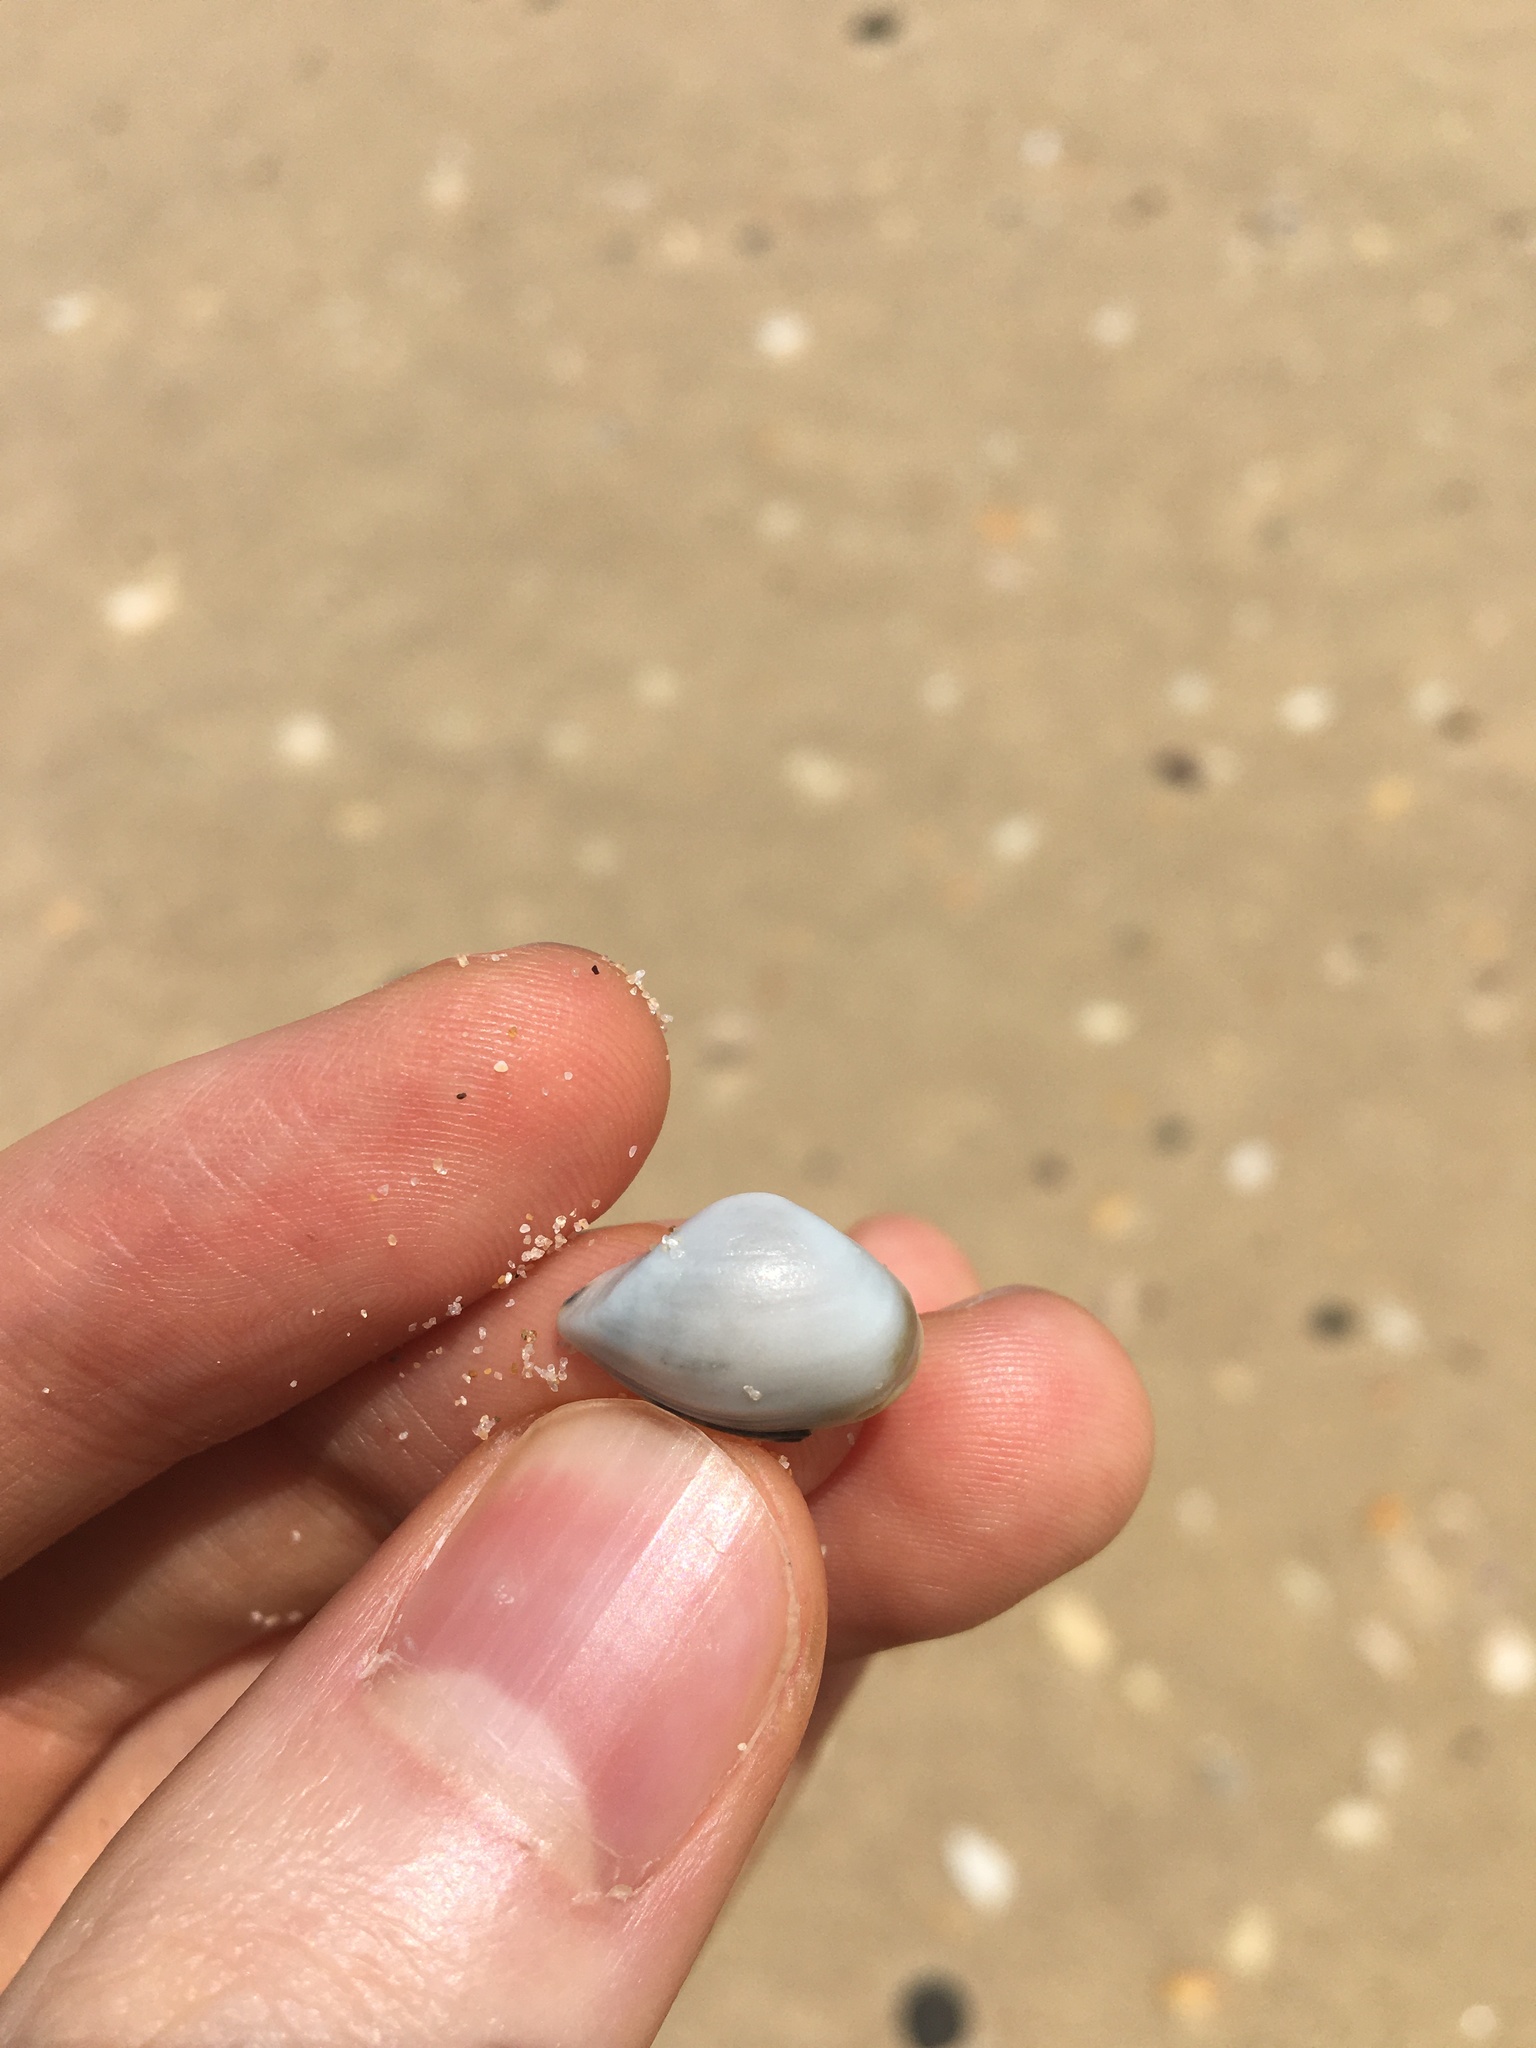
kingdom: Animalia
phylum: Mollusca
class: Bivalvia
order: Myida
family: Corbulidae
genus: Corbula
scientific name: Corbula smithiana
